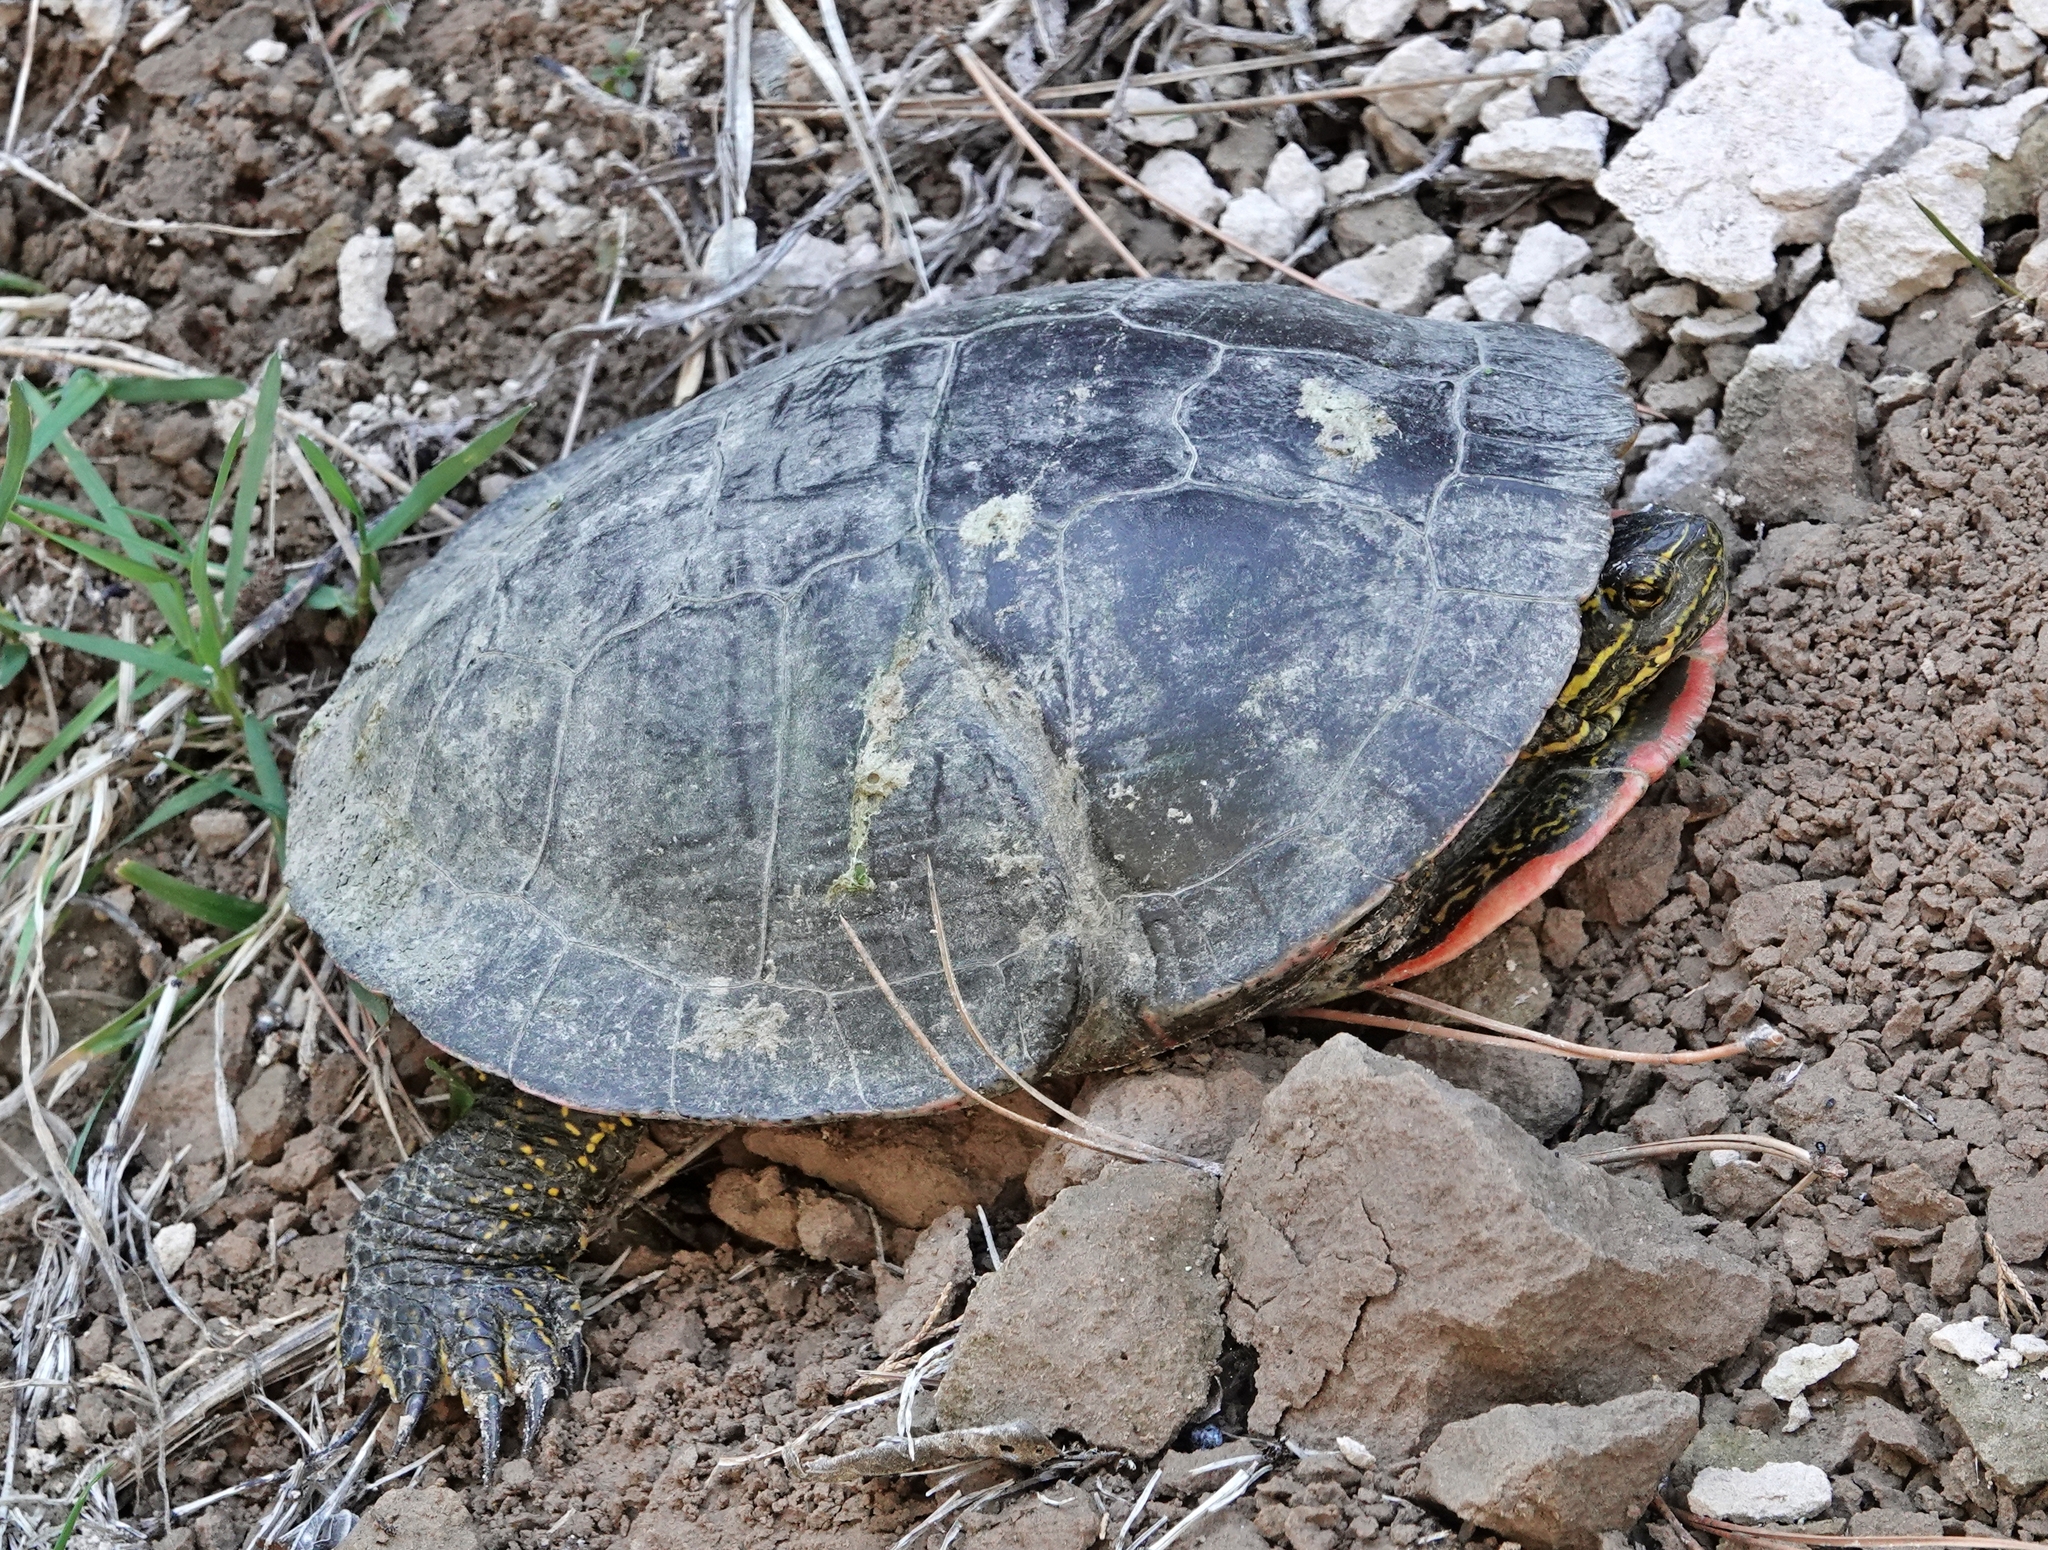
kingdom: Animalia
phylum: Chordata
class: Testudines
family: Emydidae
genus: Chrysemys
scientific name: Chrysemys picta
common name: Painted turtle
